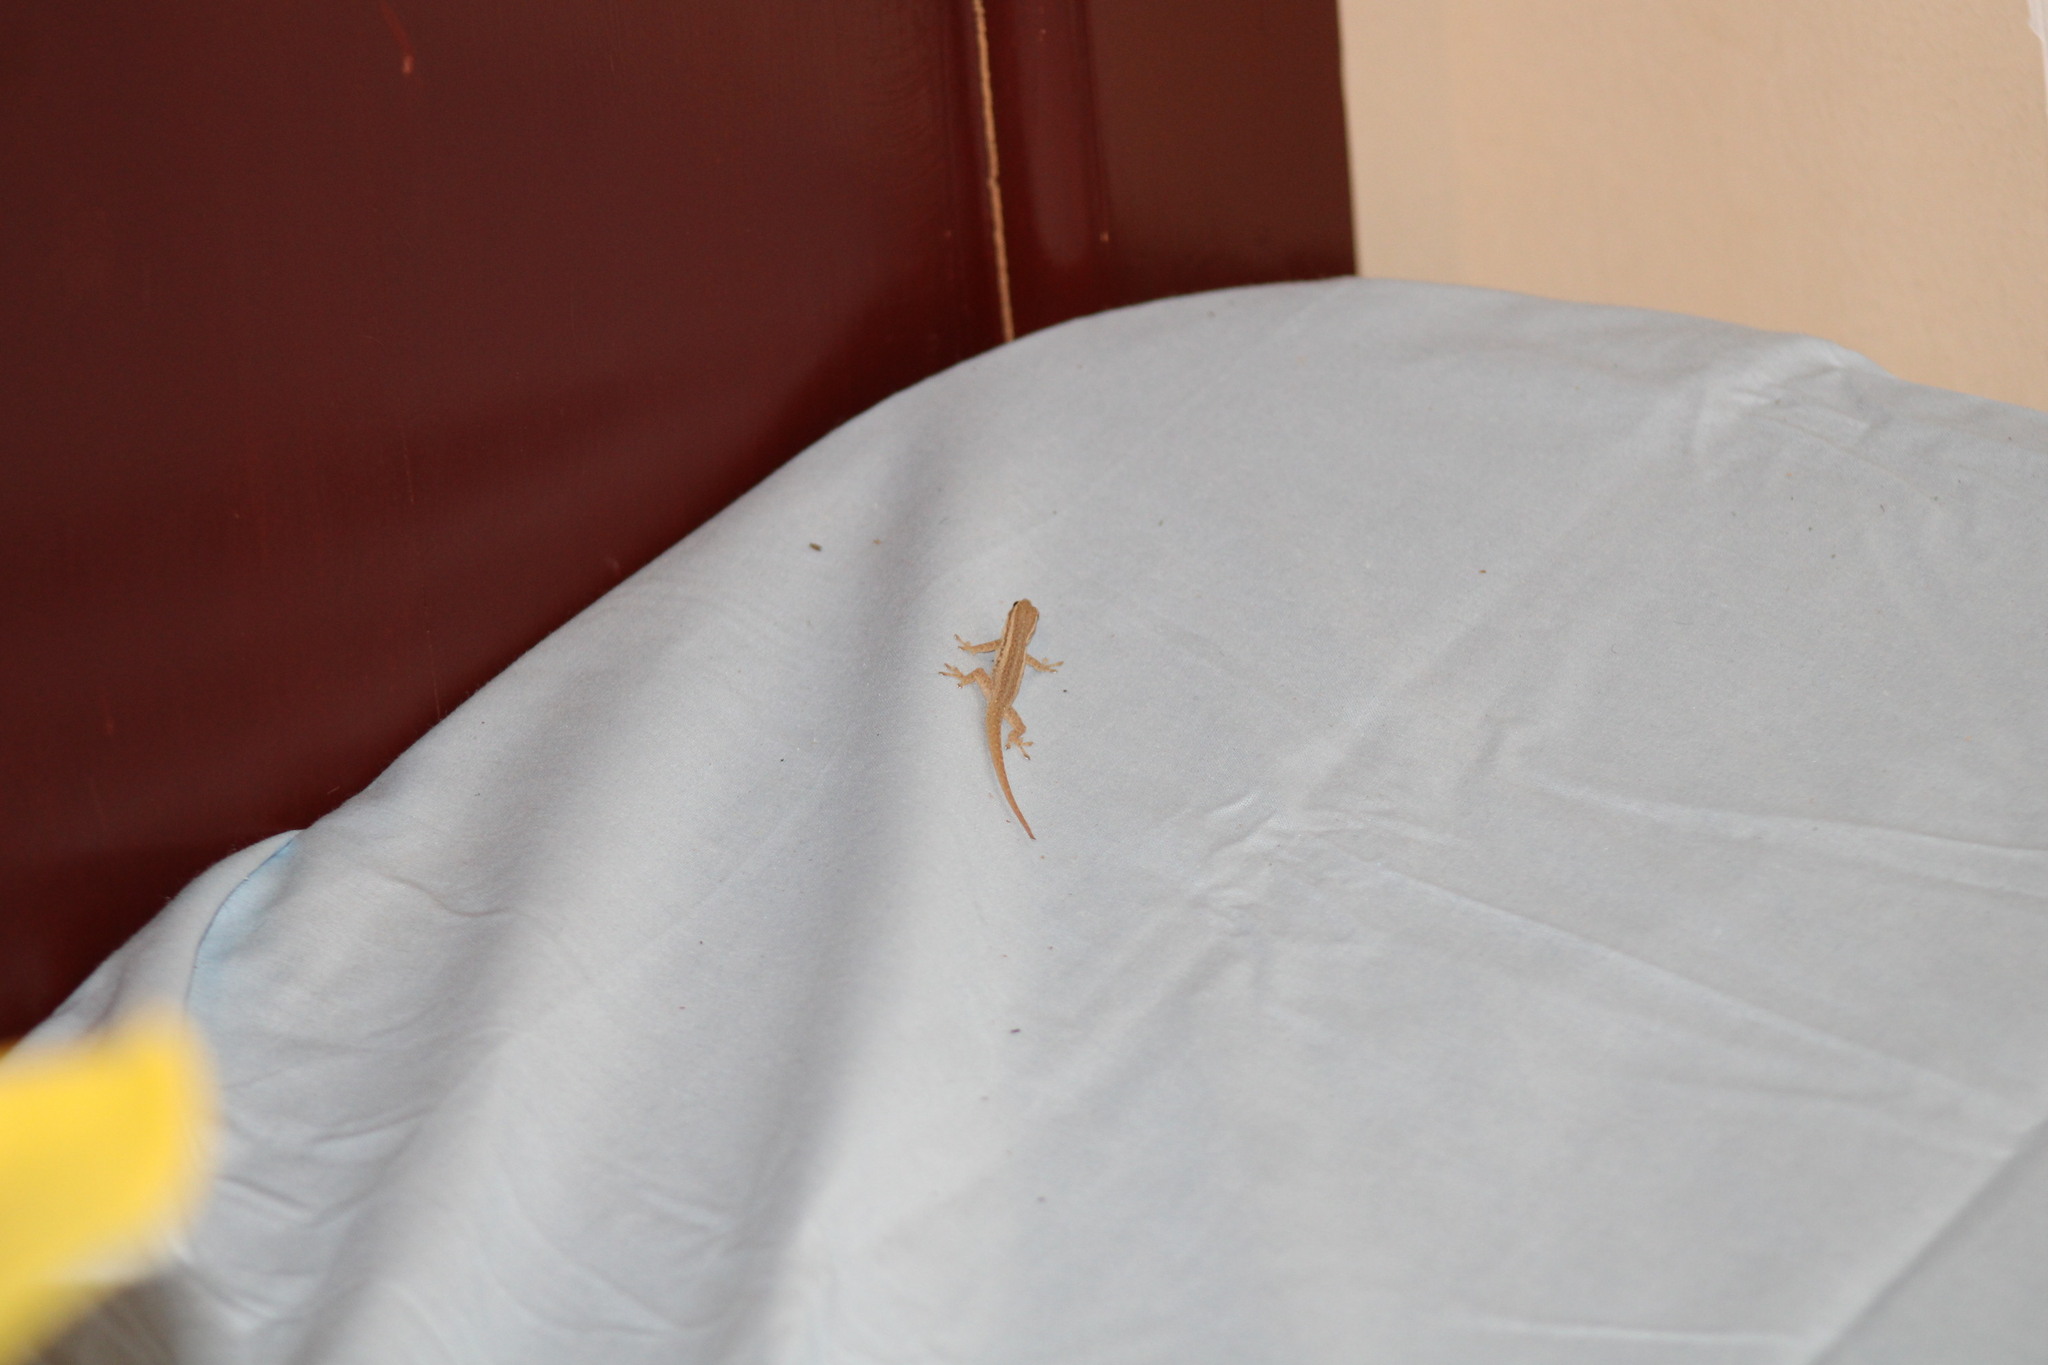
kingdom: Animalia
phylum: Chordata
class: Squamata
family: Gekkonidae
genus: Lygodactylus
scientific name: Lygodactylus capensis
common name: Cape dwarf gecko
